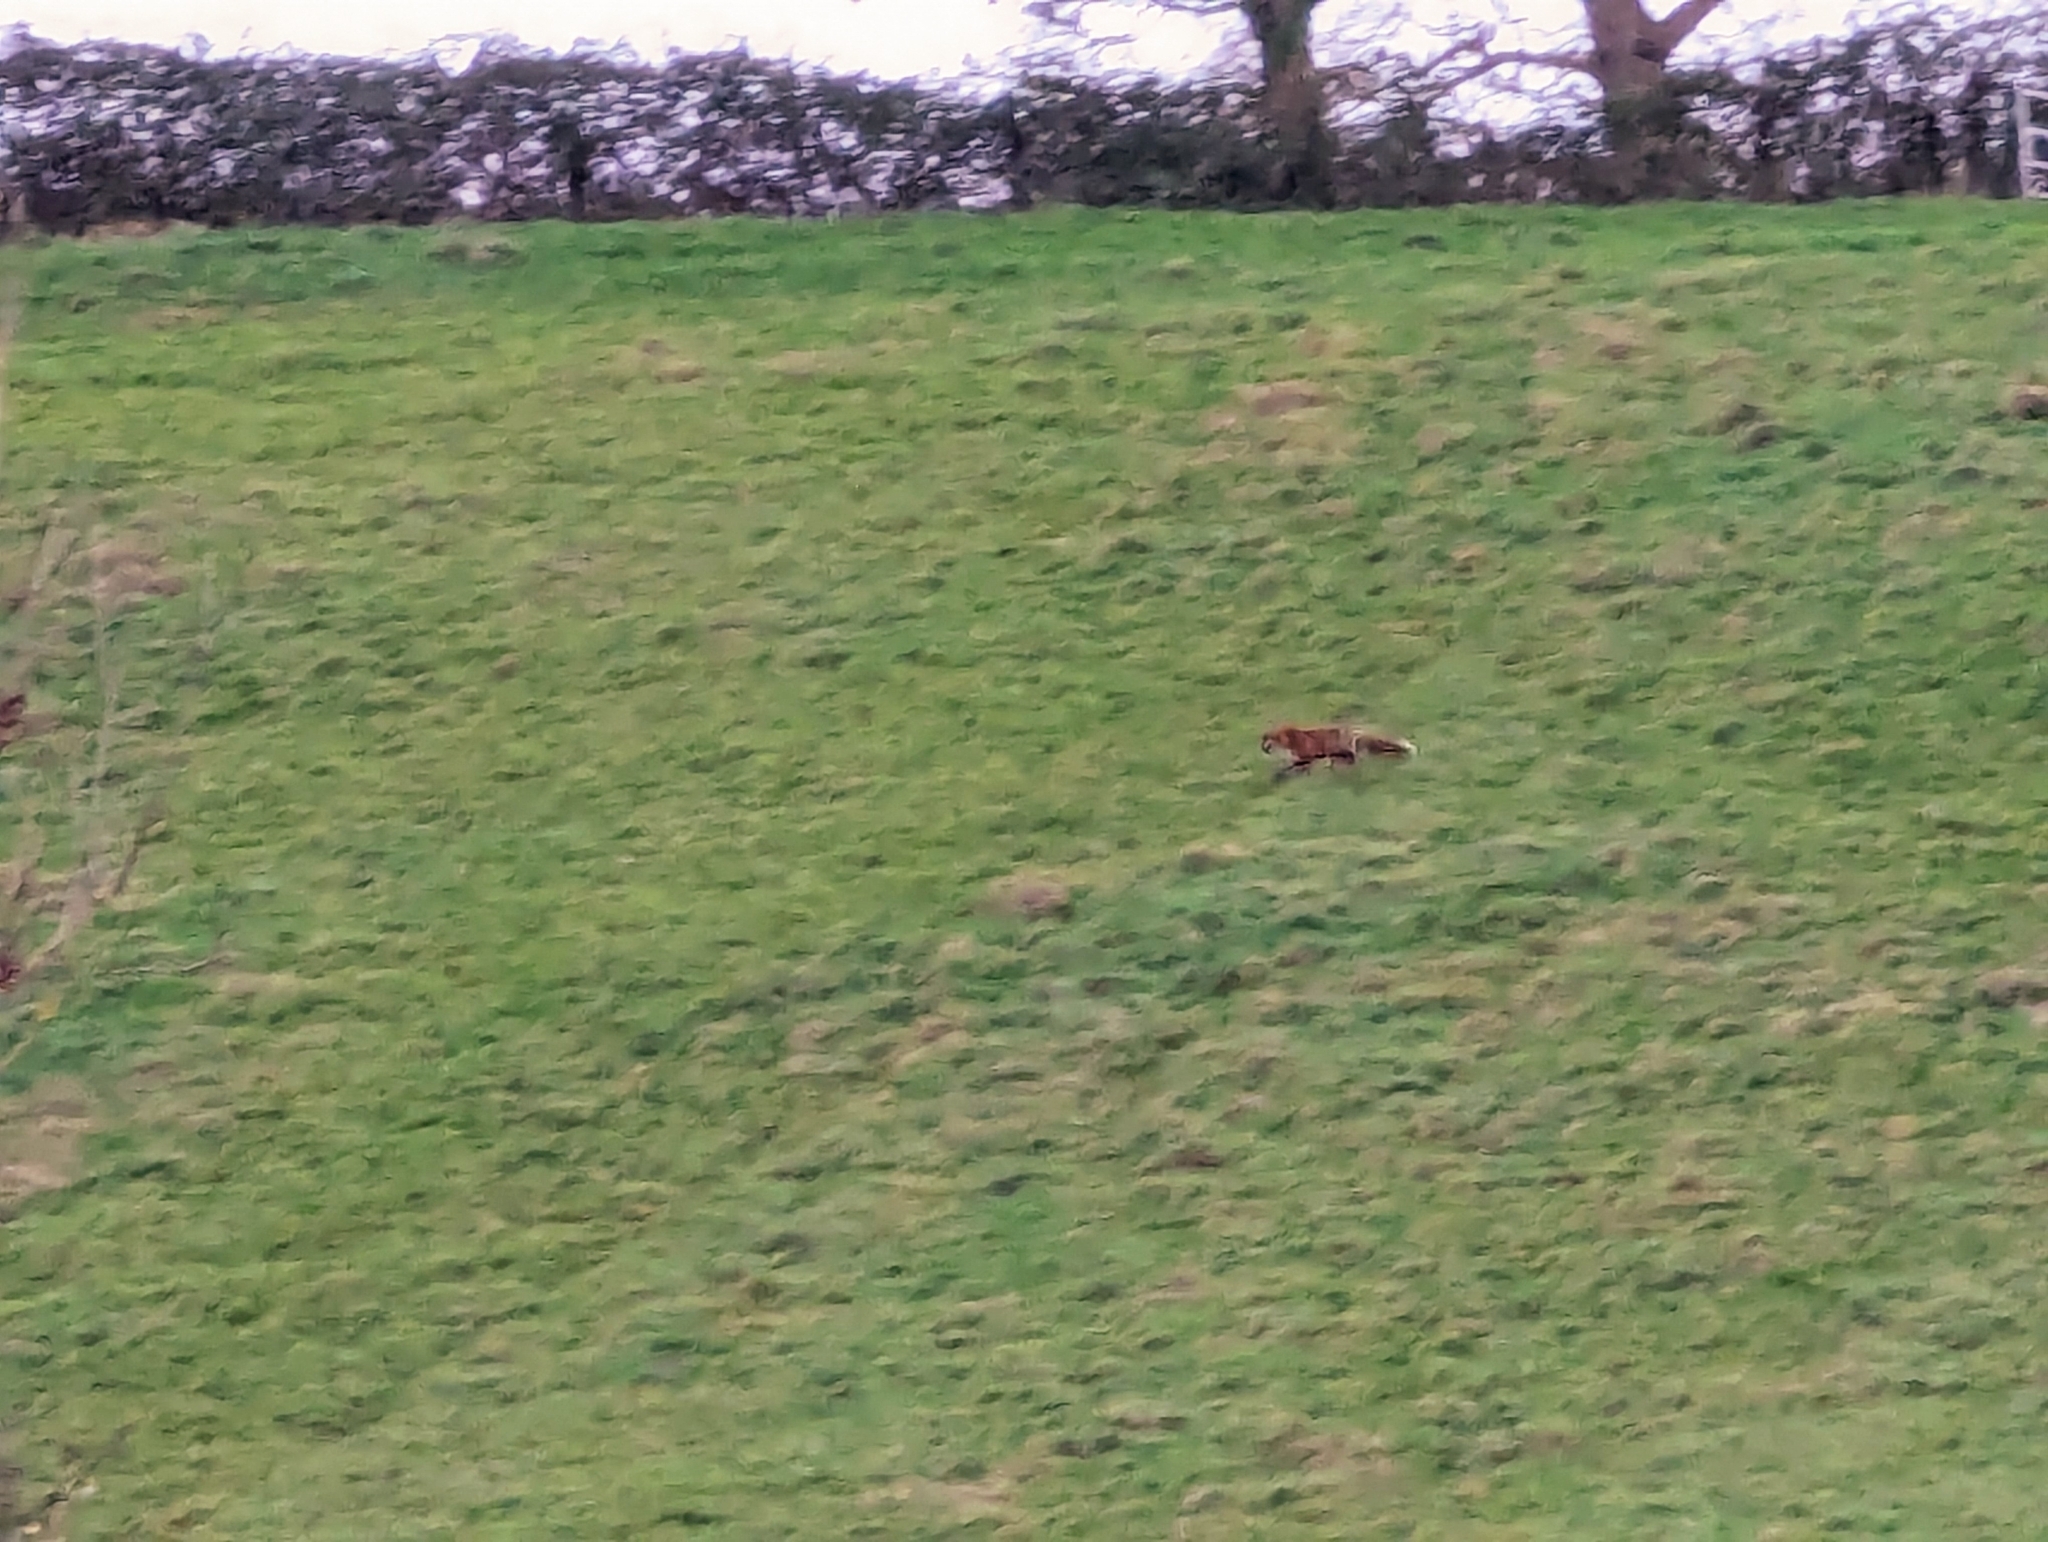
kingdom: Animalia
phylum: Chordata
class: Mammalia
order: Carnivora
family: Canidae
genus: Vulpes
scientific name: Vulpes vulpes
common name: Red fox
